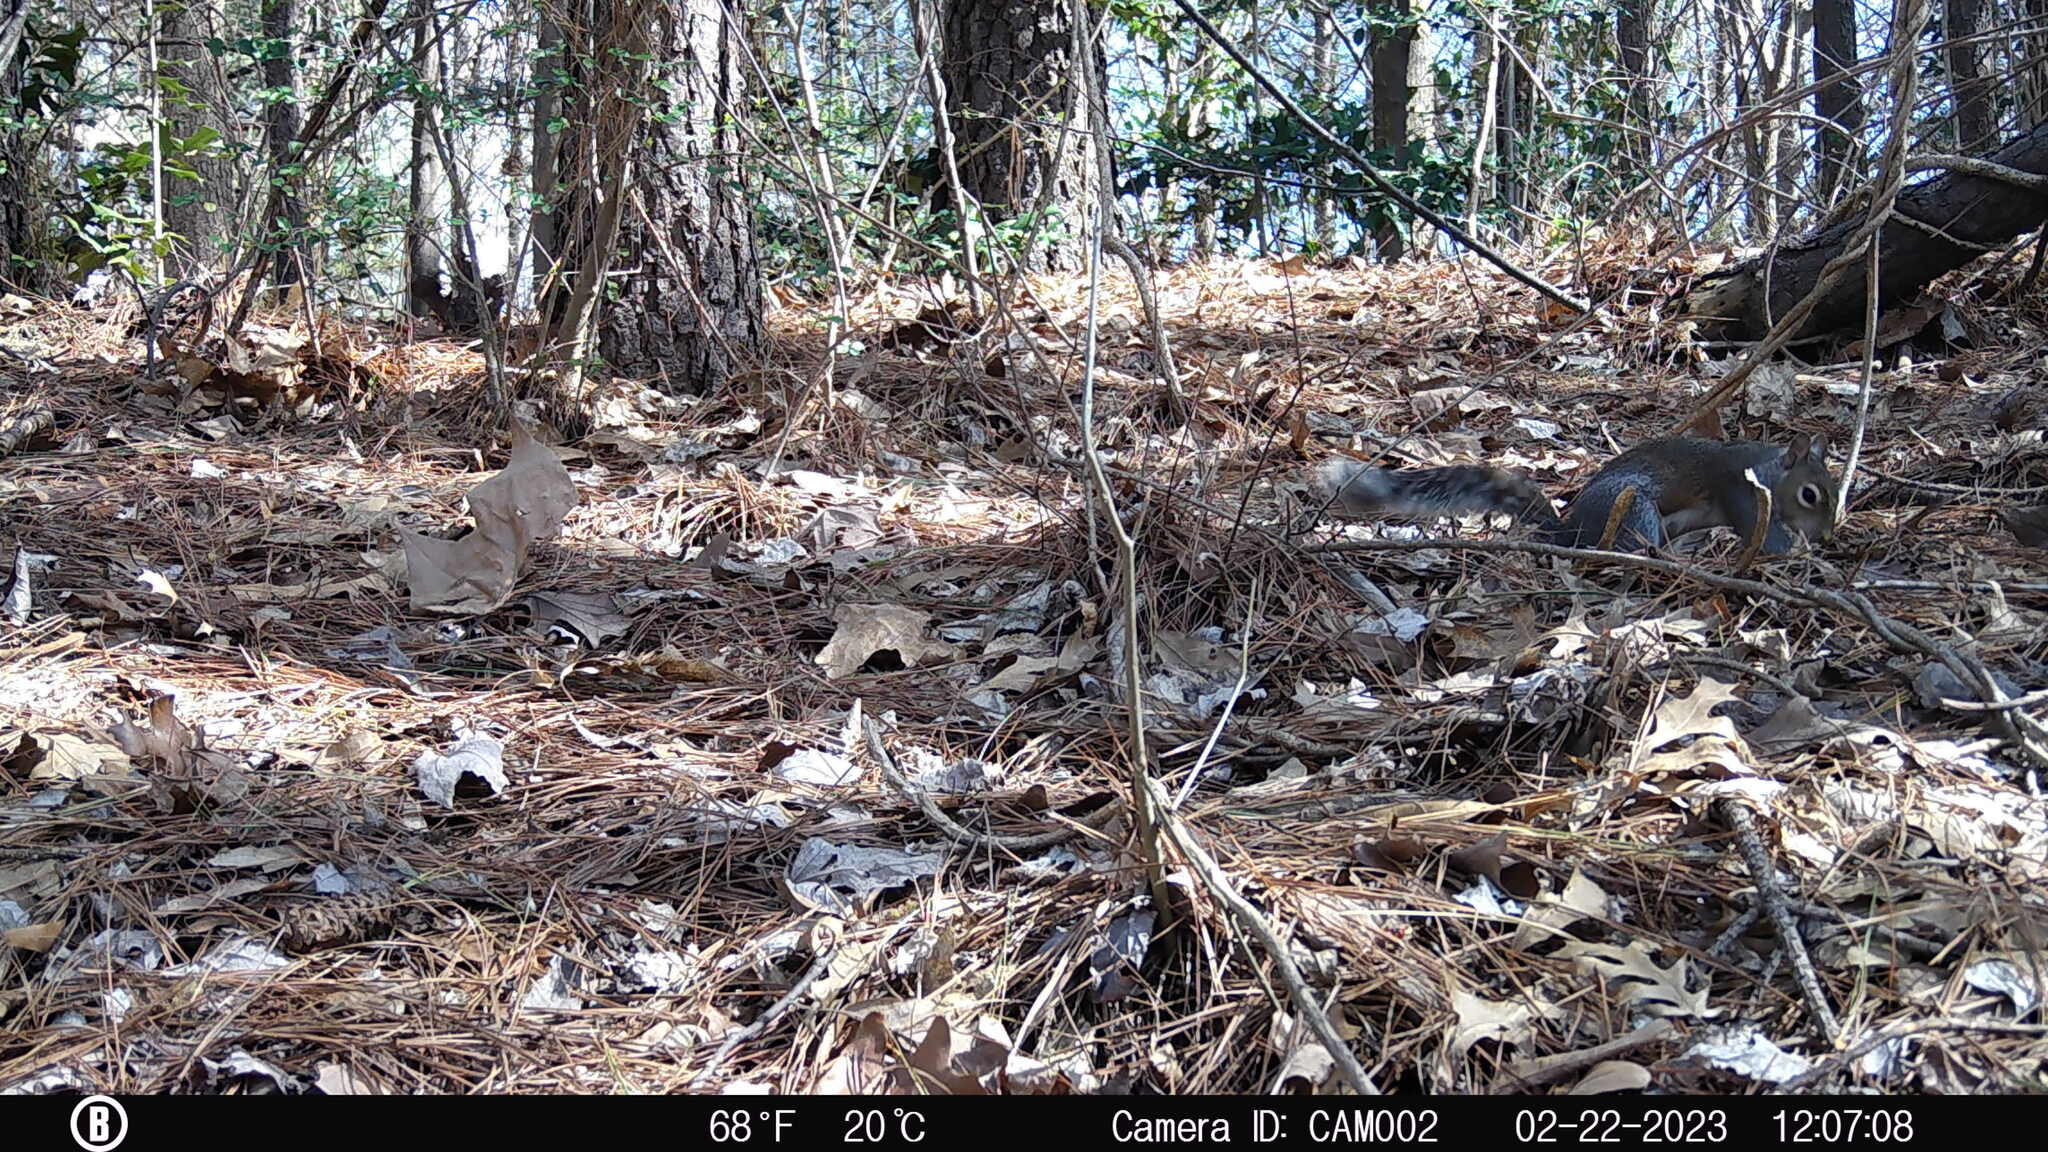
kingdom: Animalia
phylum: Chordata
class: Mammalia
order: Rodentia
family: Sciuridae
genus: Sciurus
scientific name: Sciurus carolinensis
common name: Eastern gray squirrel
